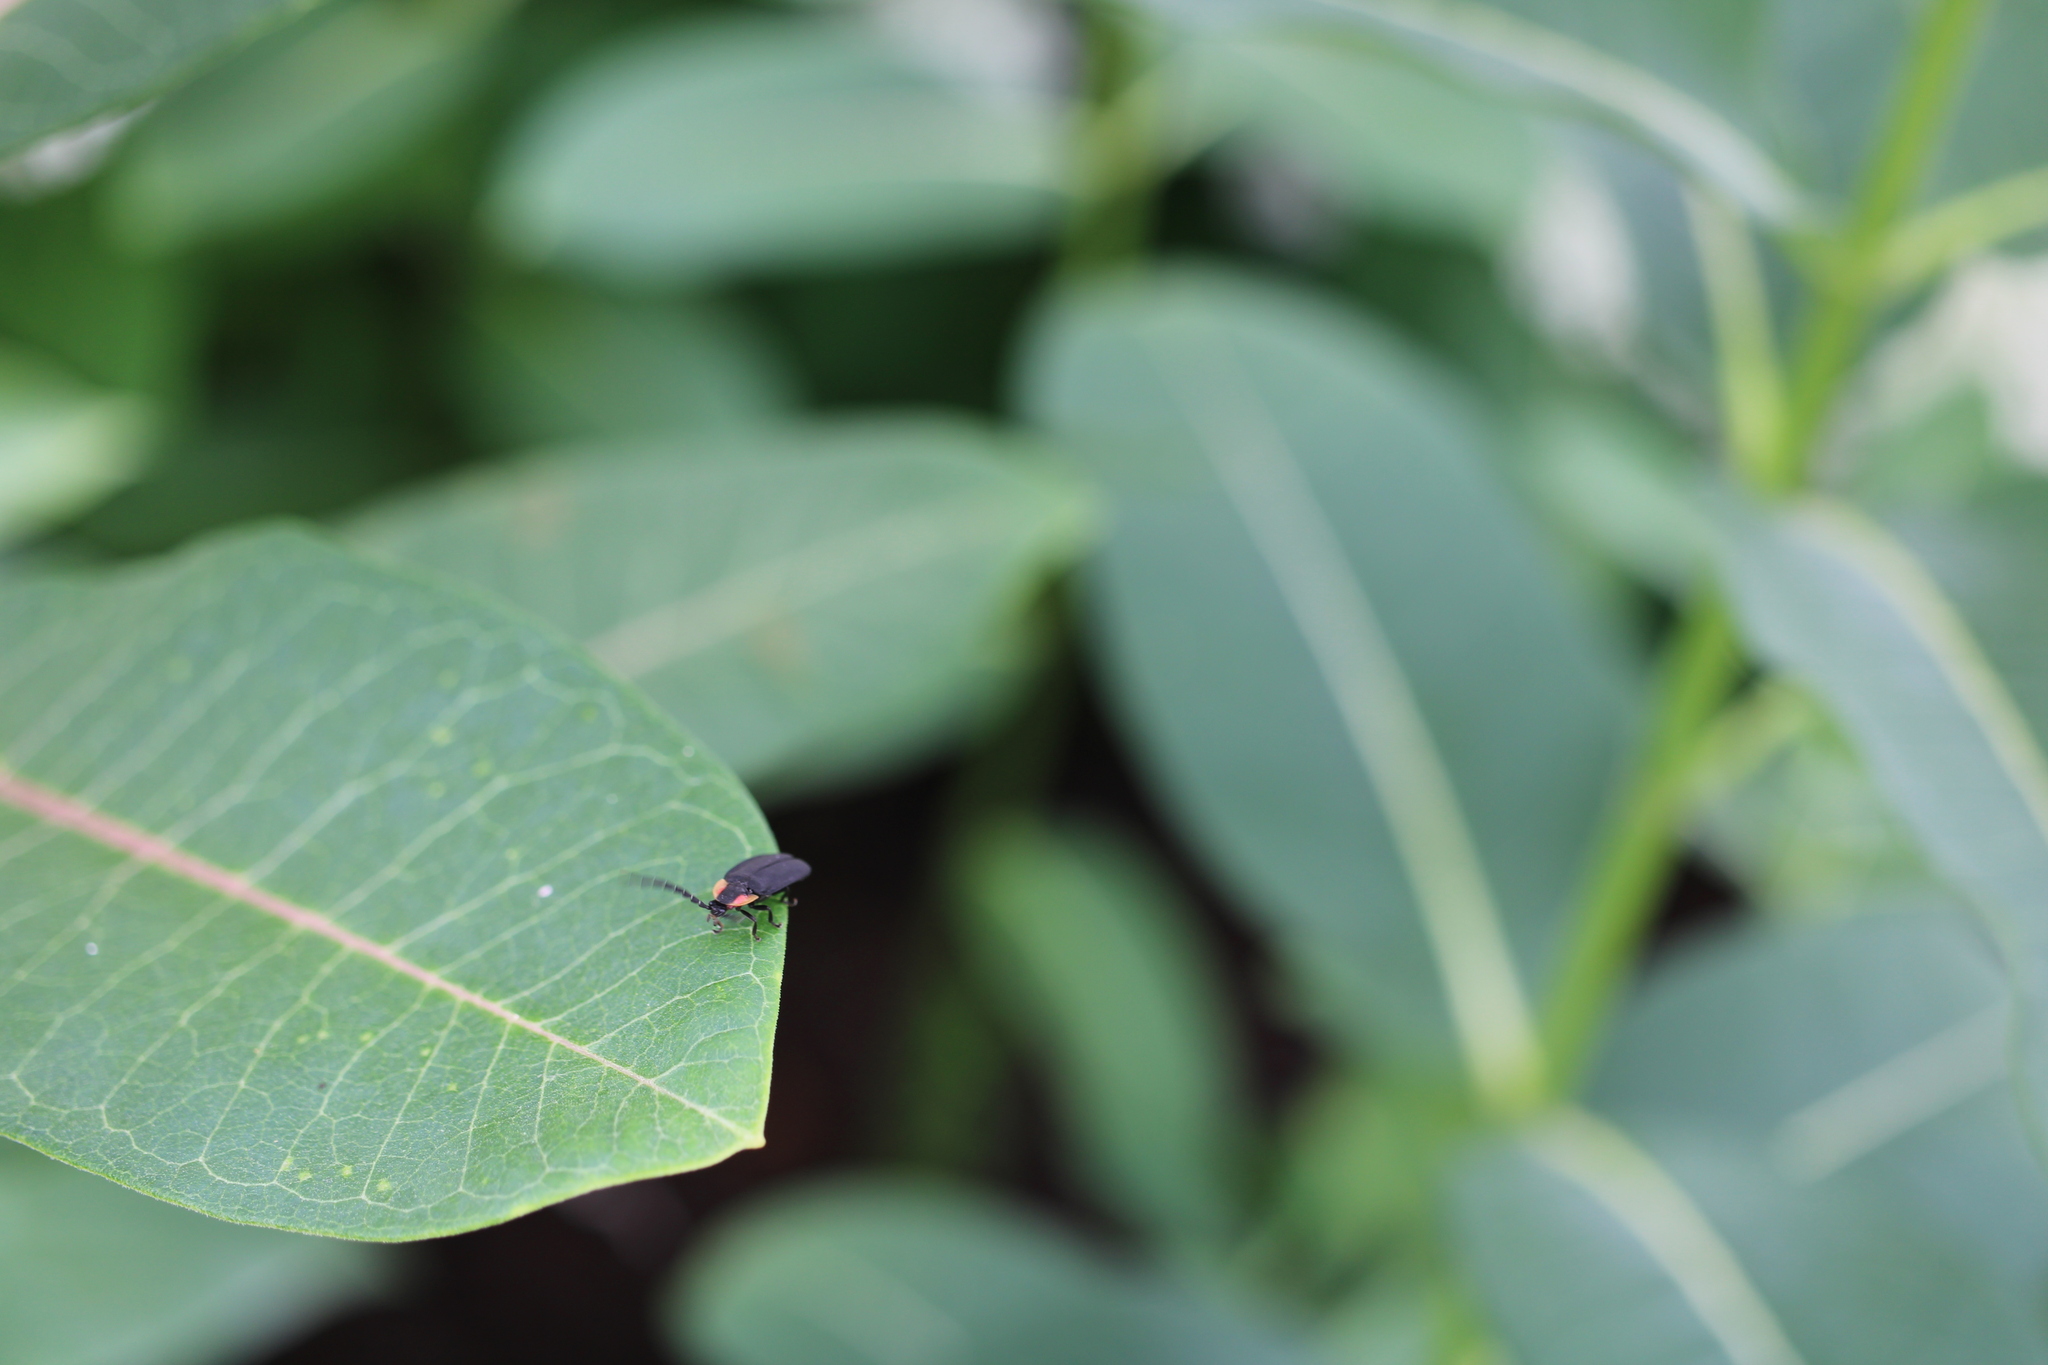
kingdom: Animalia
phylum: Arthropoda
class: Insecta
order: Coleoptera
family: Lampyridae
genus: Lucidota
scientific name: Lucidota atra
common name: Black firefly
